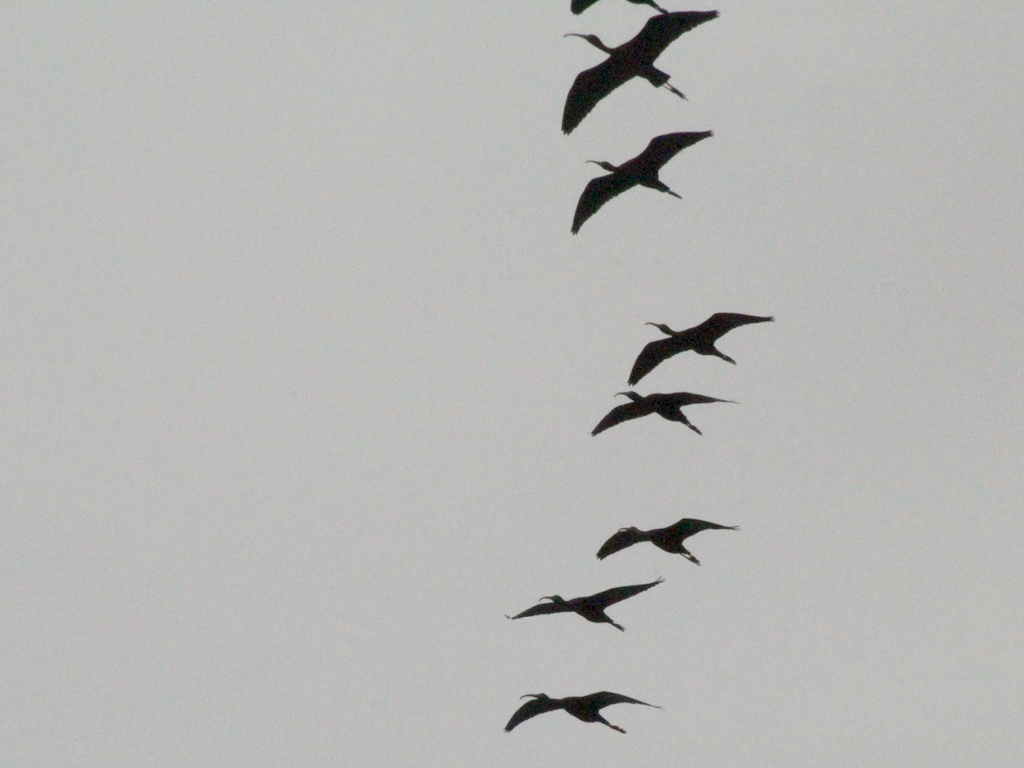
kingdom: Animalia
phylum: Chordata
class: Aves
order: Pelecaniformes
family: Threskiornithidae
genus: Plegadis
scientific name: Plegadis falcinellus
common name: Glossy ibis
